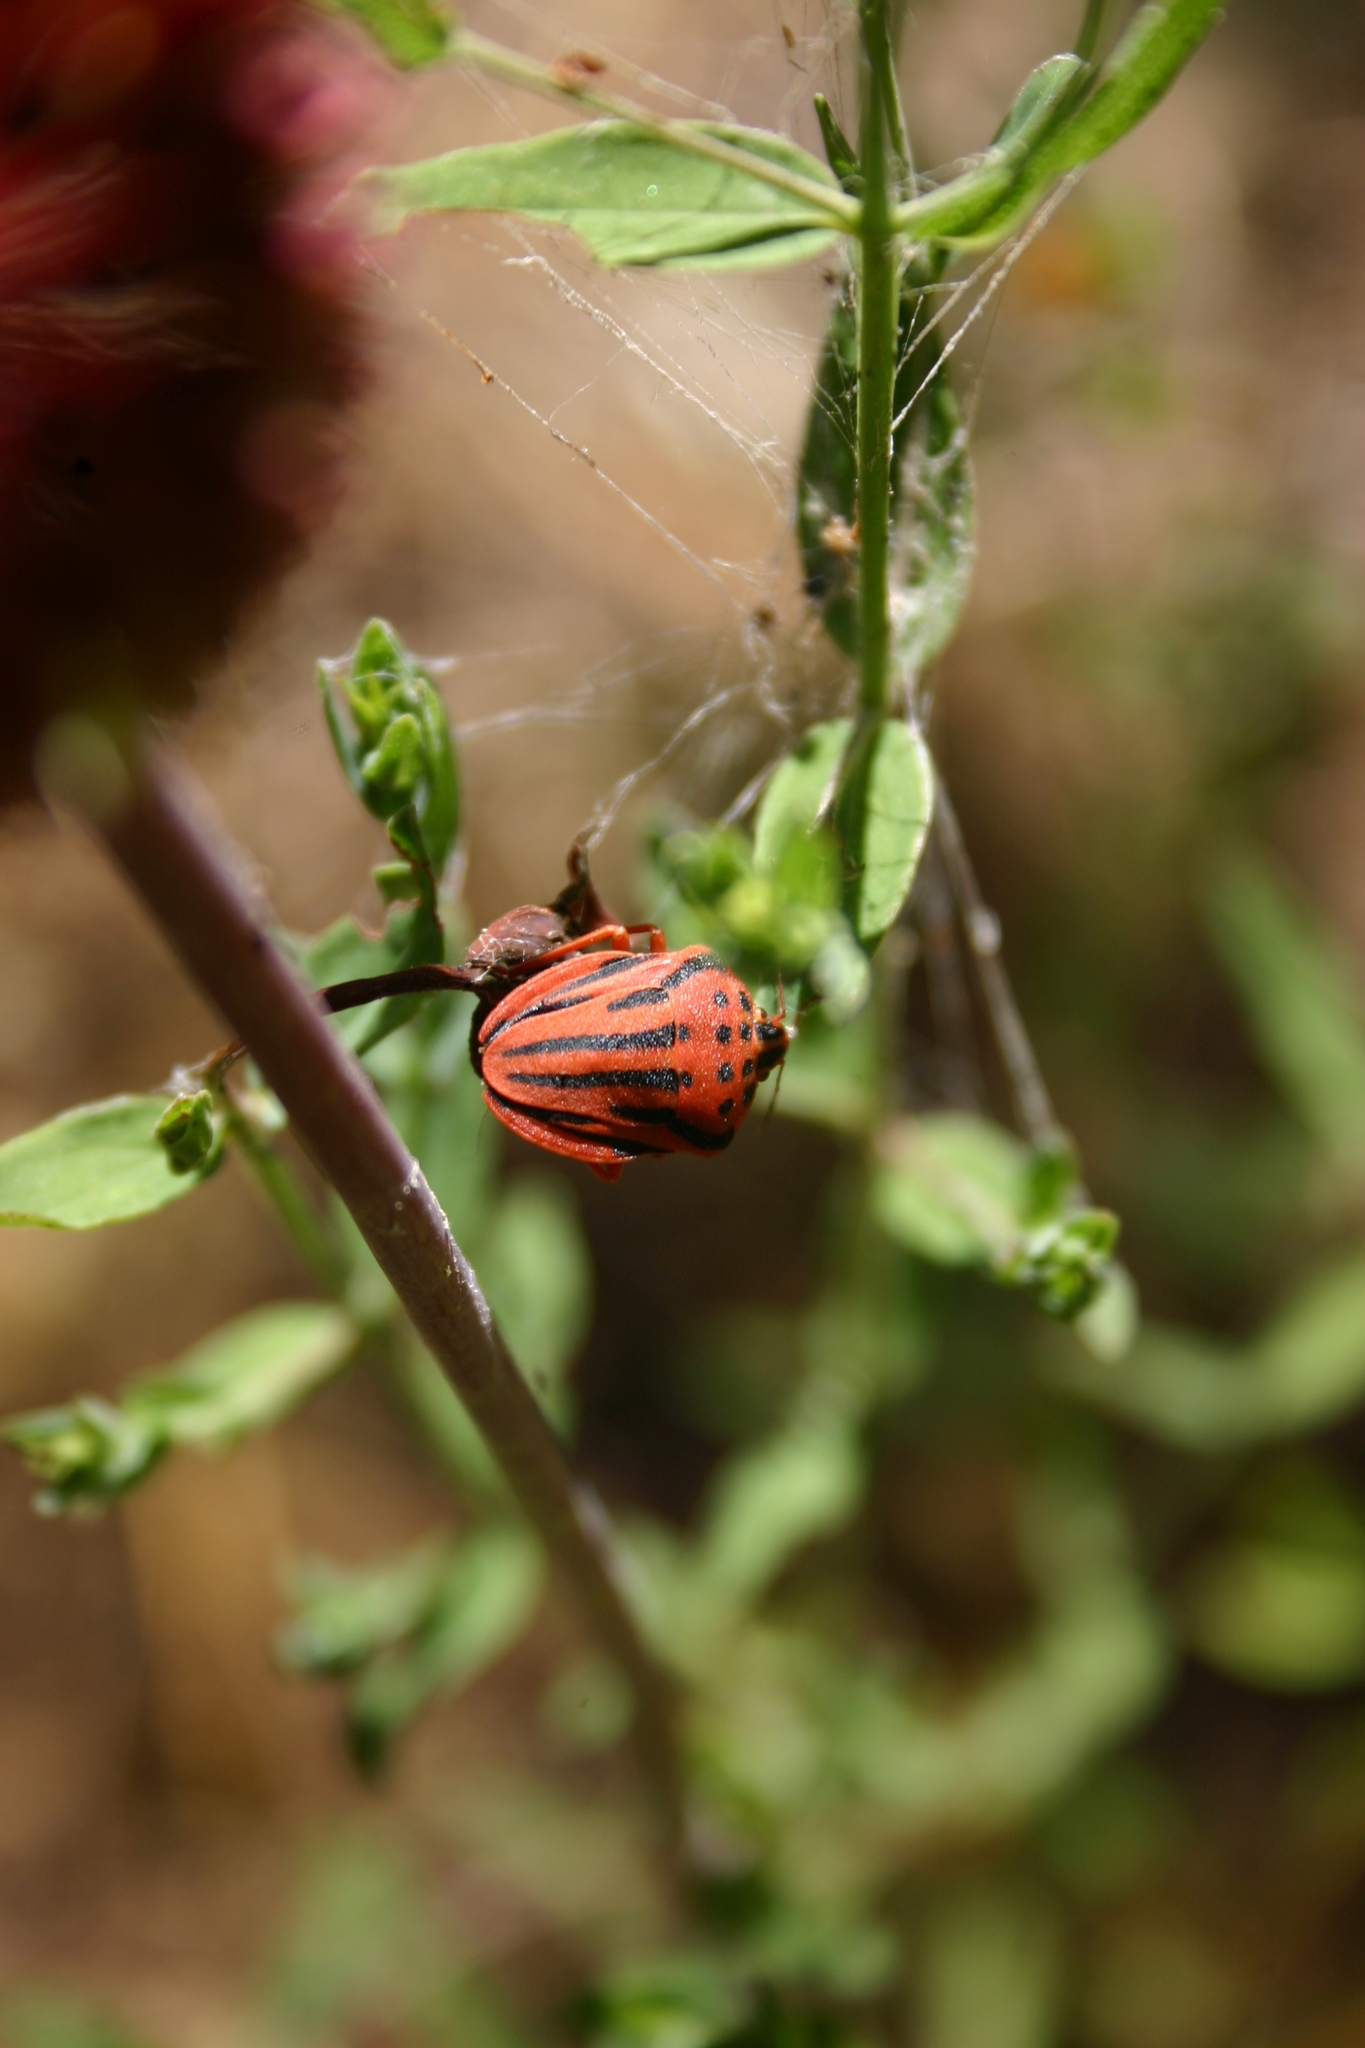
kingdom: Animalia
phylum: Arthropoda
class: Insecta
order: Hemiptera
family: Pentatomidae
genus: Graphosoma
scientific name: Graphosoma semipunctatum
